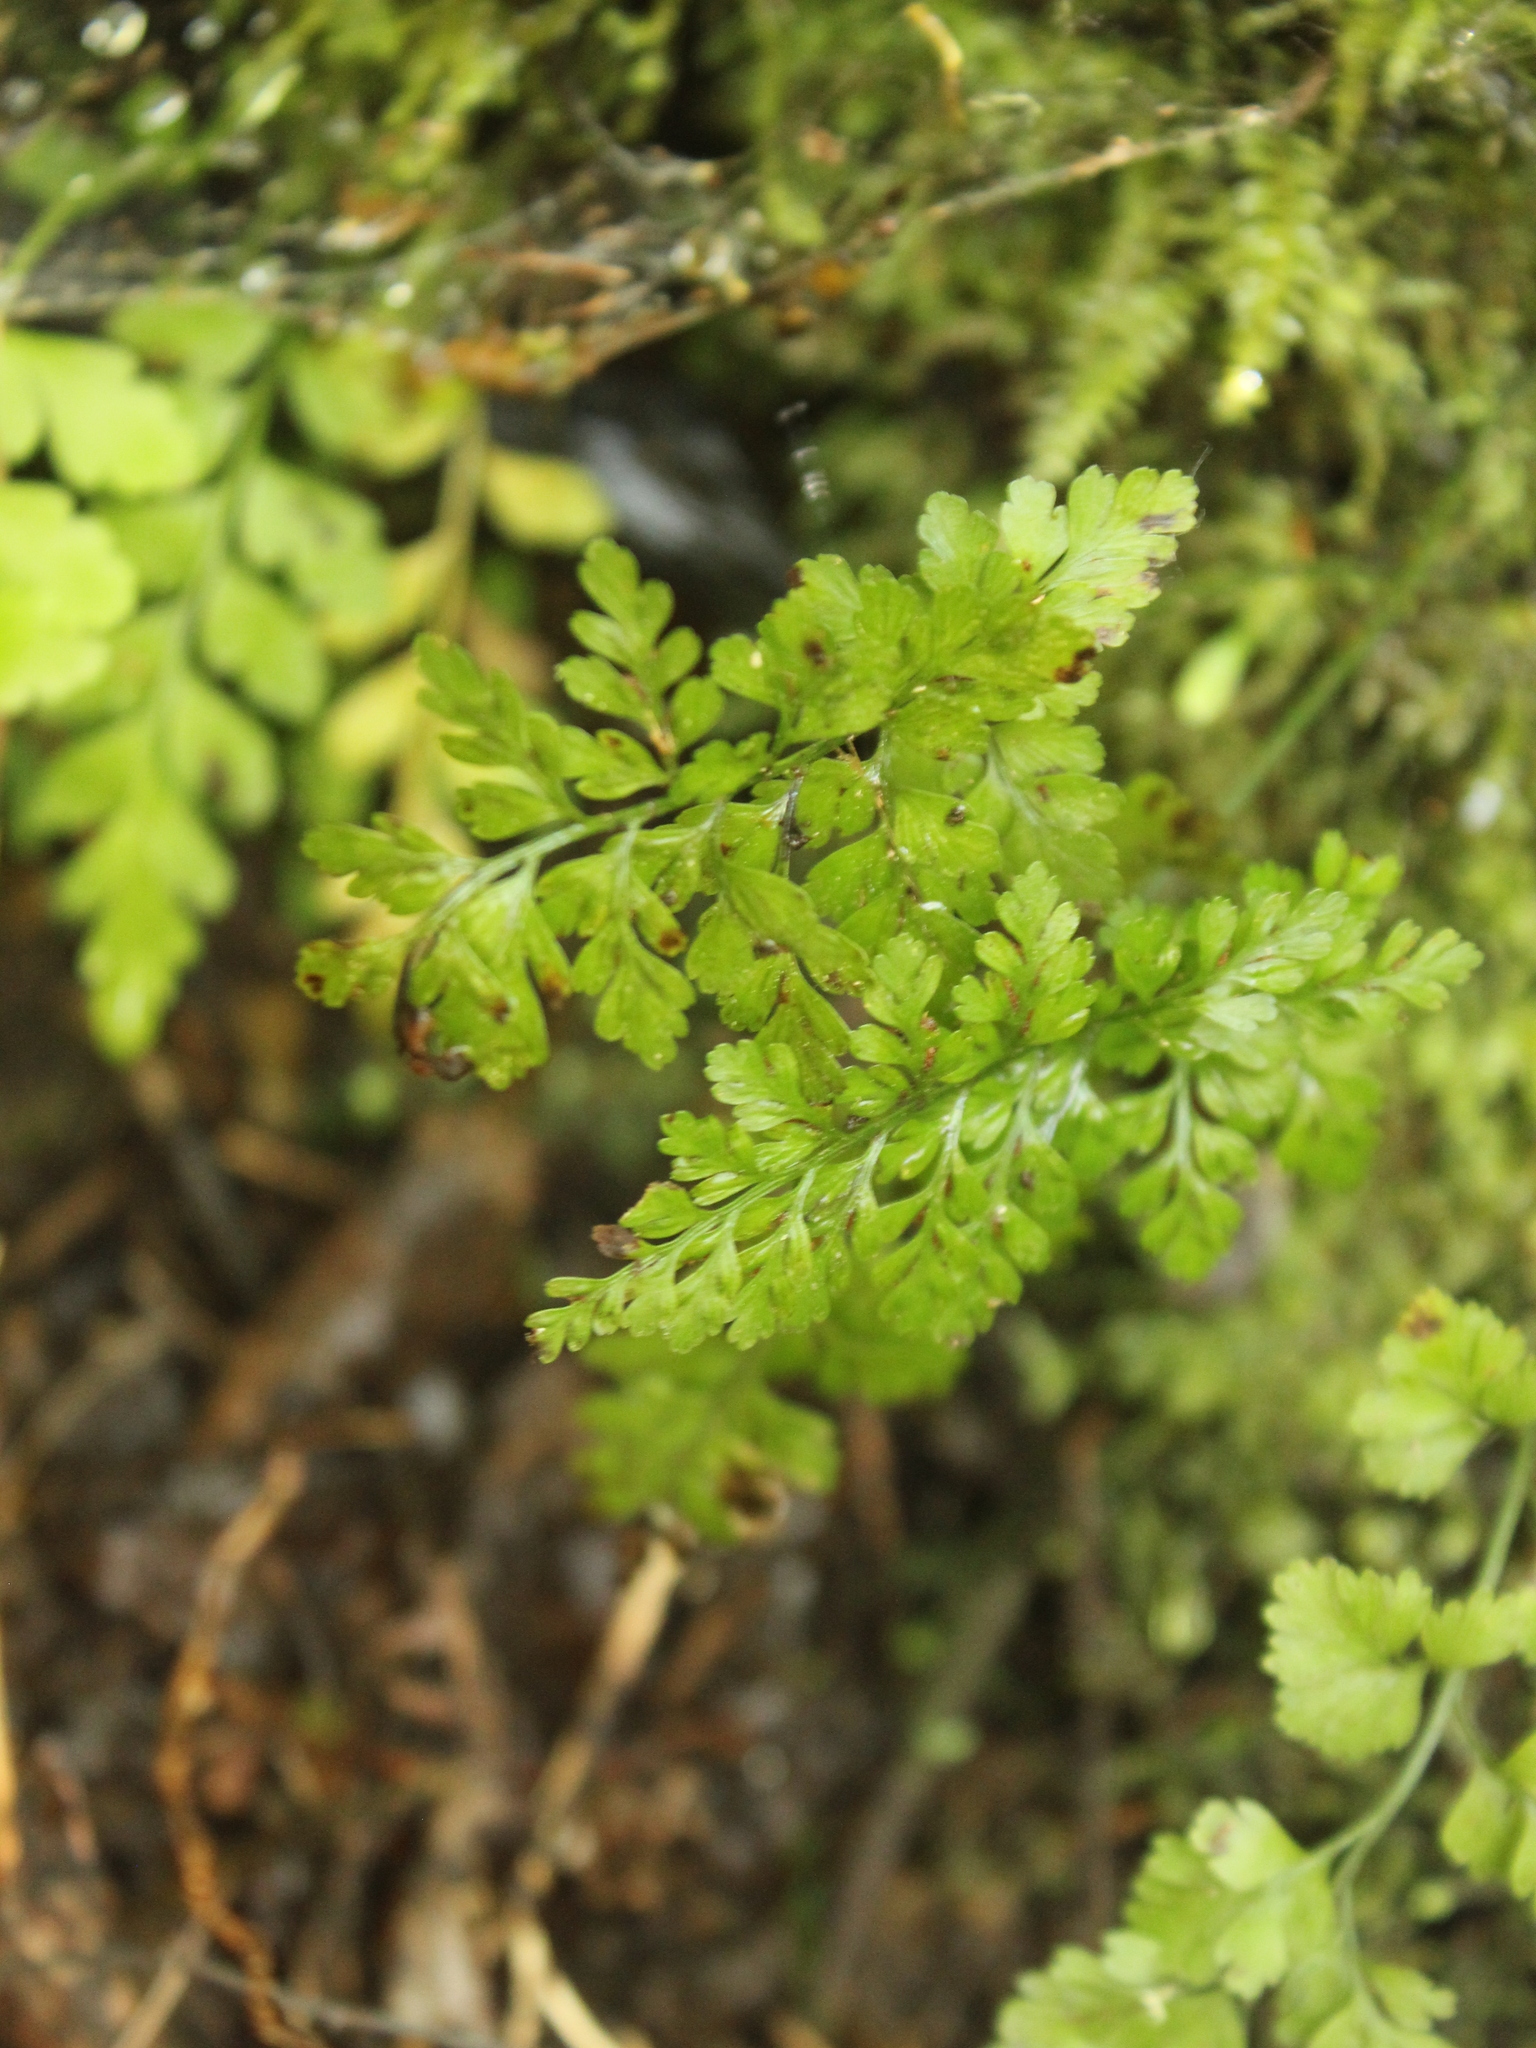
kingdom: Plantae
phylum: Tracheophyta
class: Polypodiopsida
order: Polypodiales
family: Aspleniaceae
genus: Asplenium
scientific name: Asplenium hookerianum
